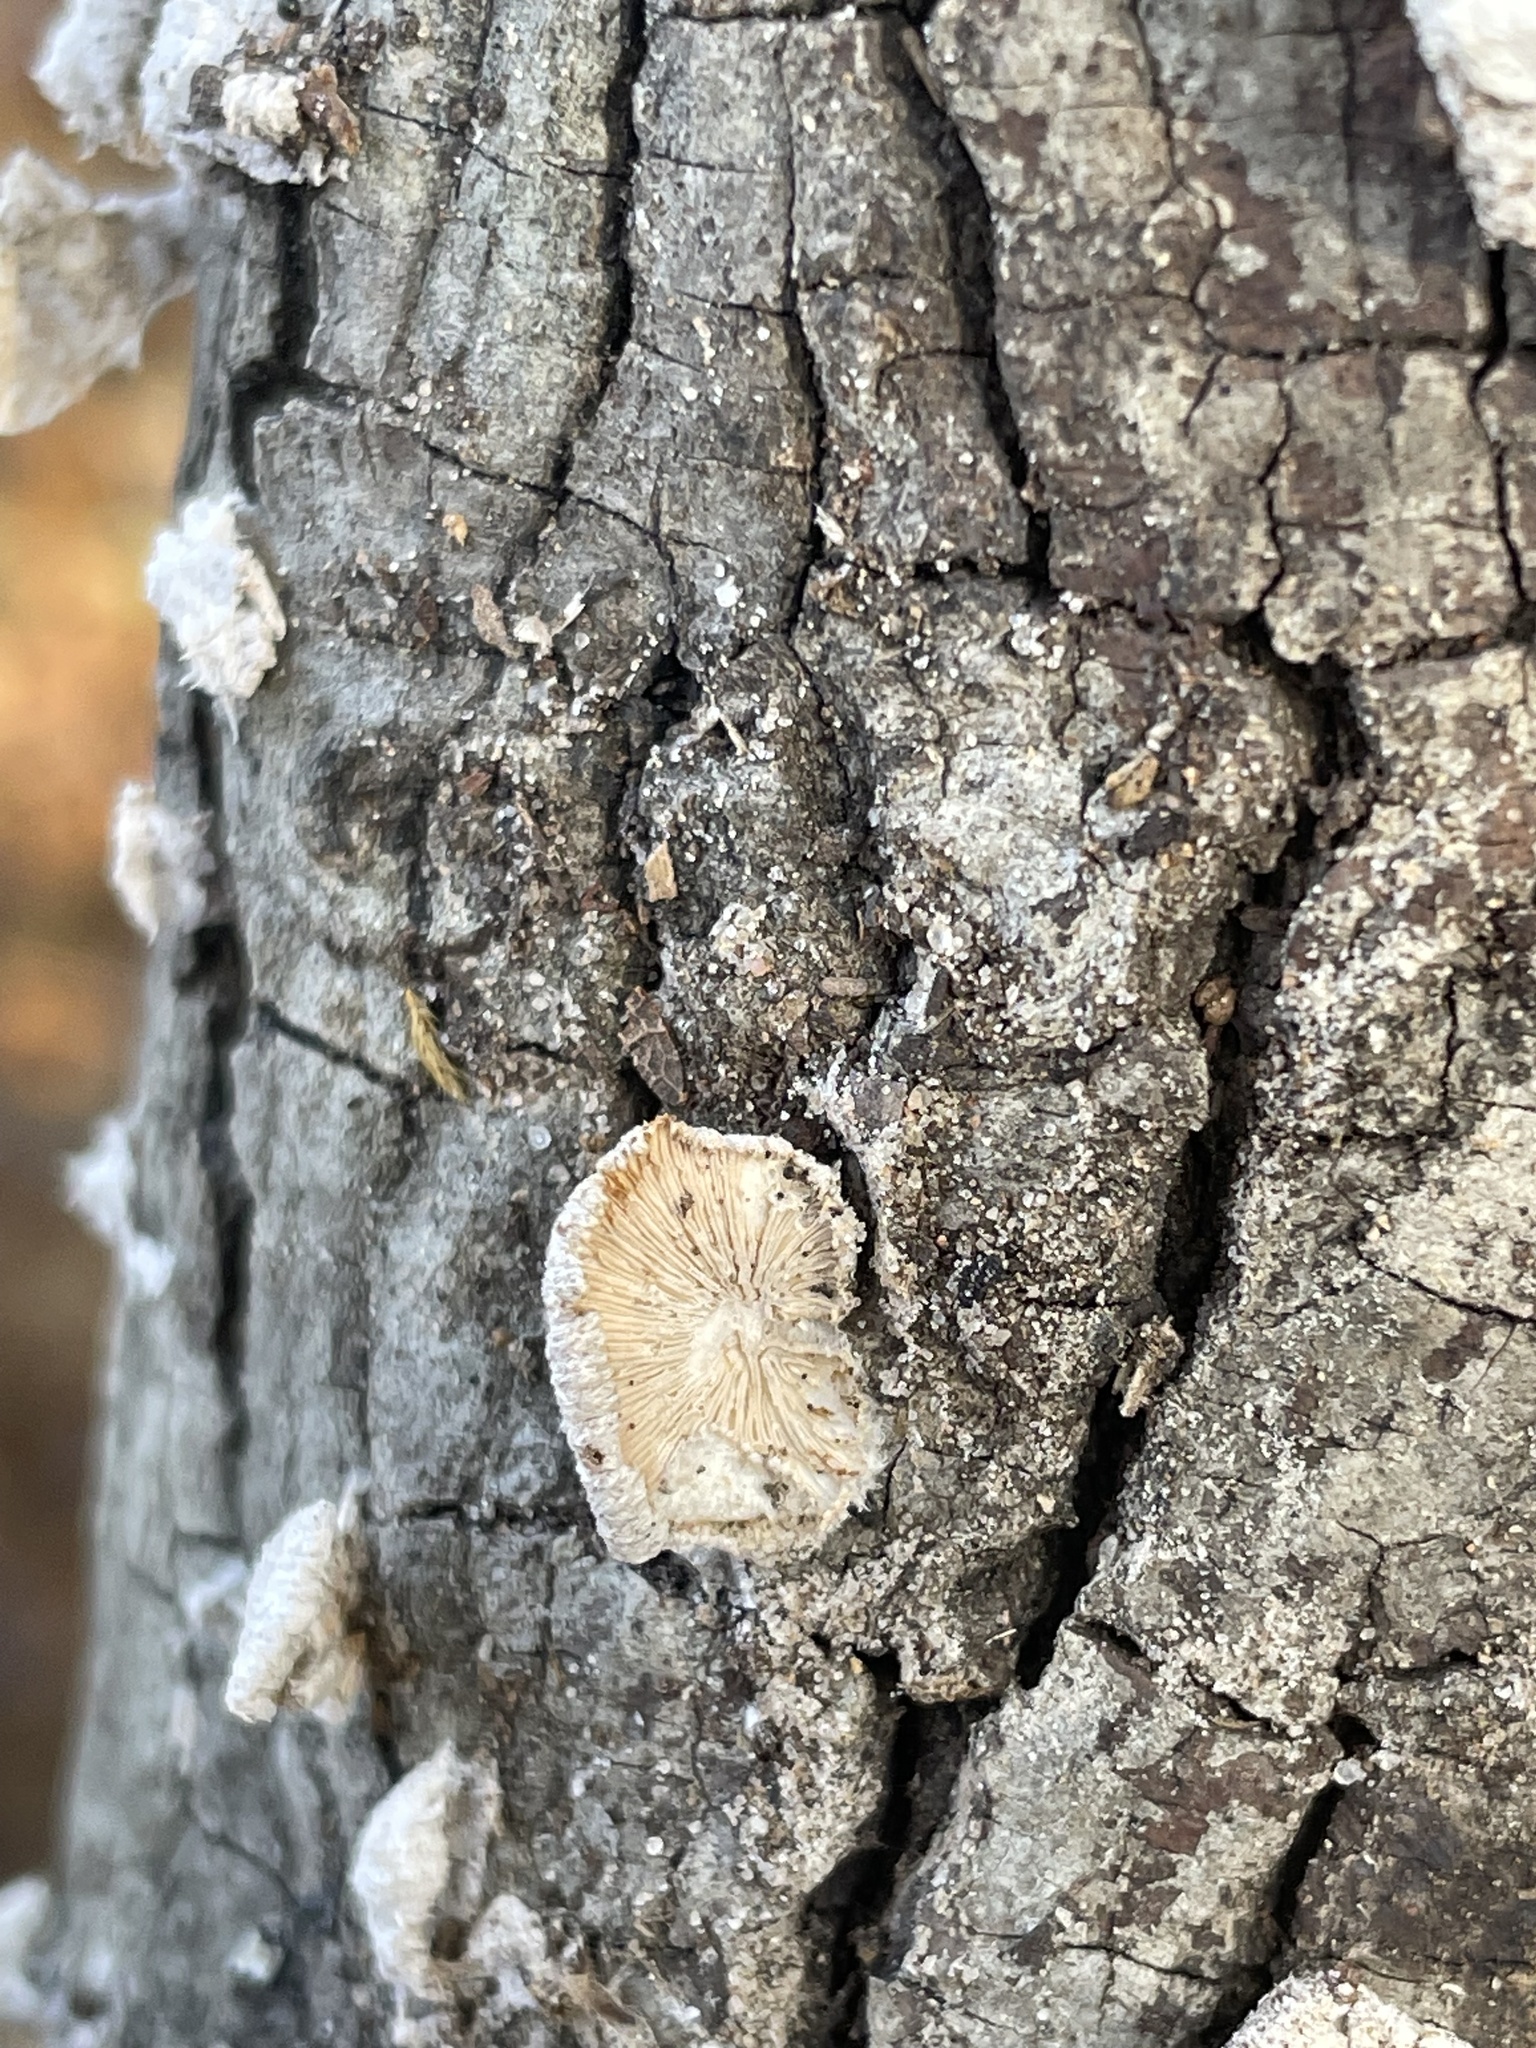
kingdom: Fungi
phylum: Basidiomycota
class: Agaricomycetes
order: Agaricales
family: Schizophyllaceae
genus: Schizophyllum
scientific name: Schizophyllum commune
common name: Common porecrust
